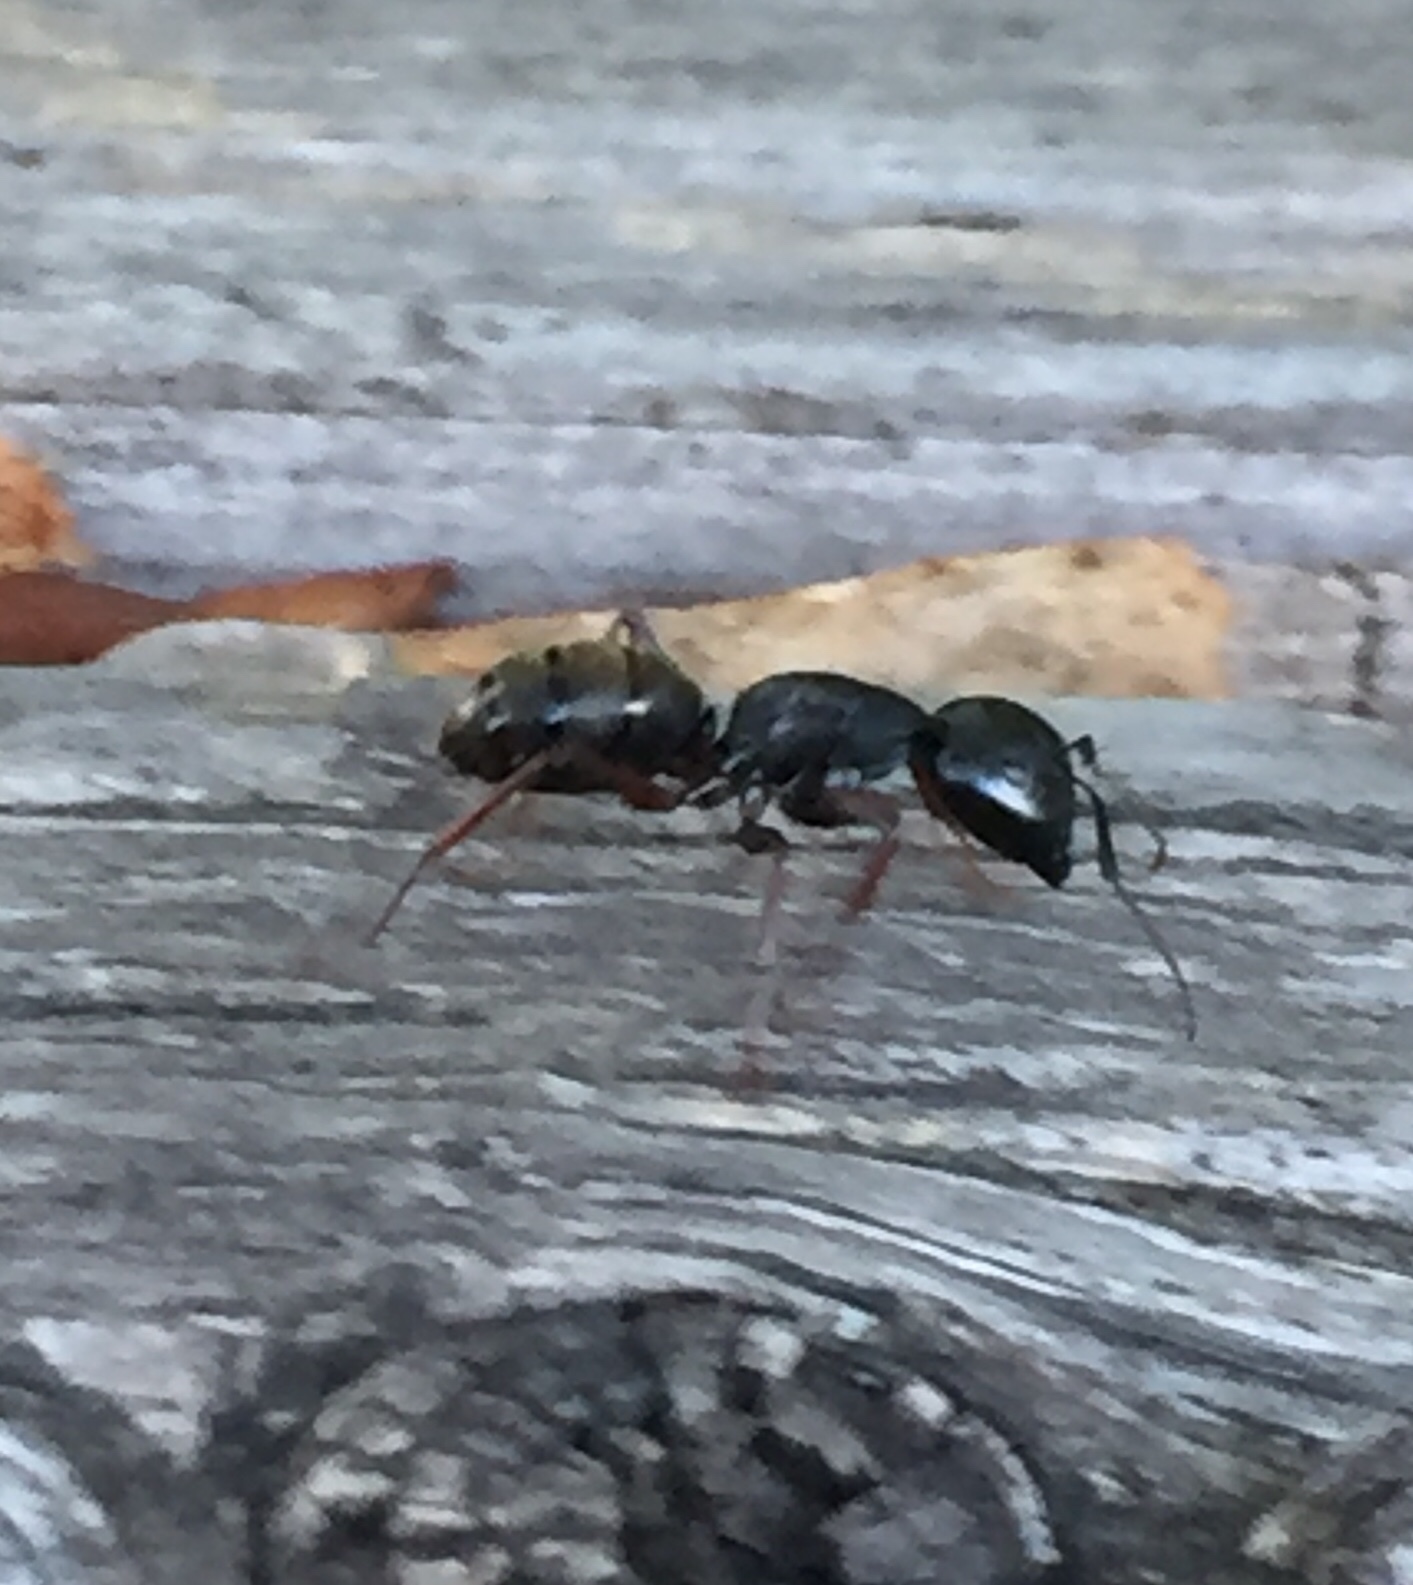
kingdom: Animalia
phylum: Arthropoda
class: Insecta
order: Hymenoptera
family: Formicidae
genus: Camponotus
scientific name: Camponotus modoc
